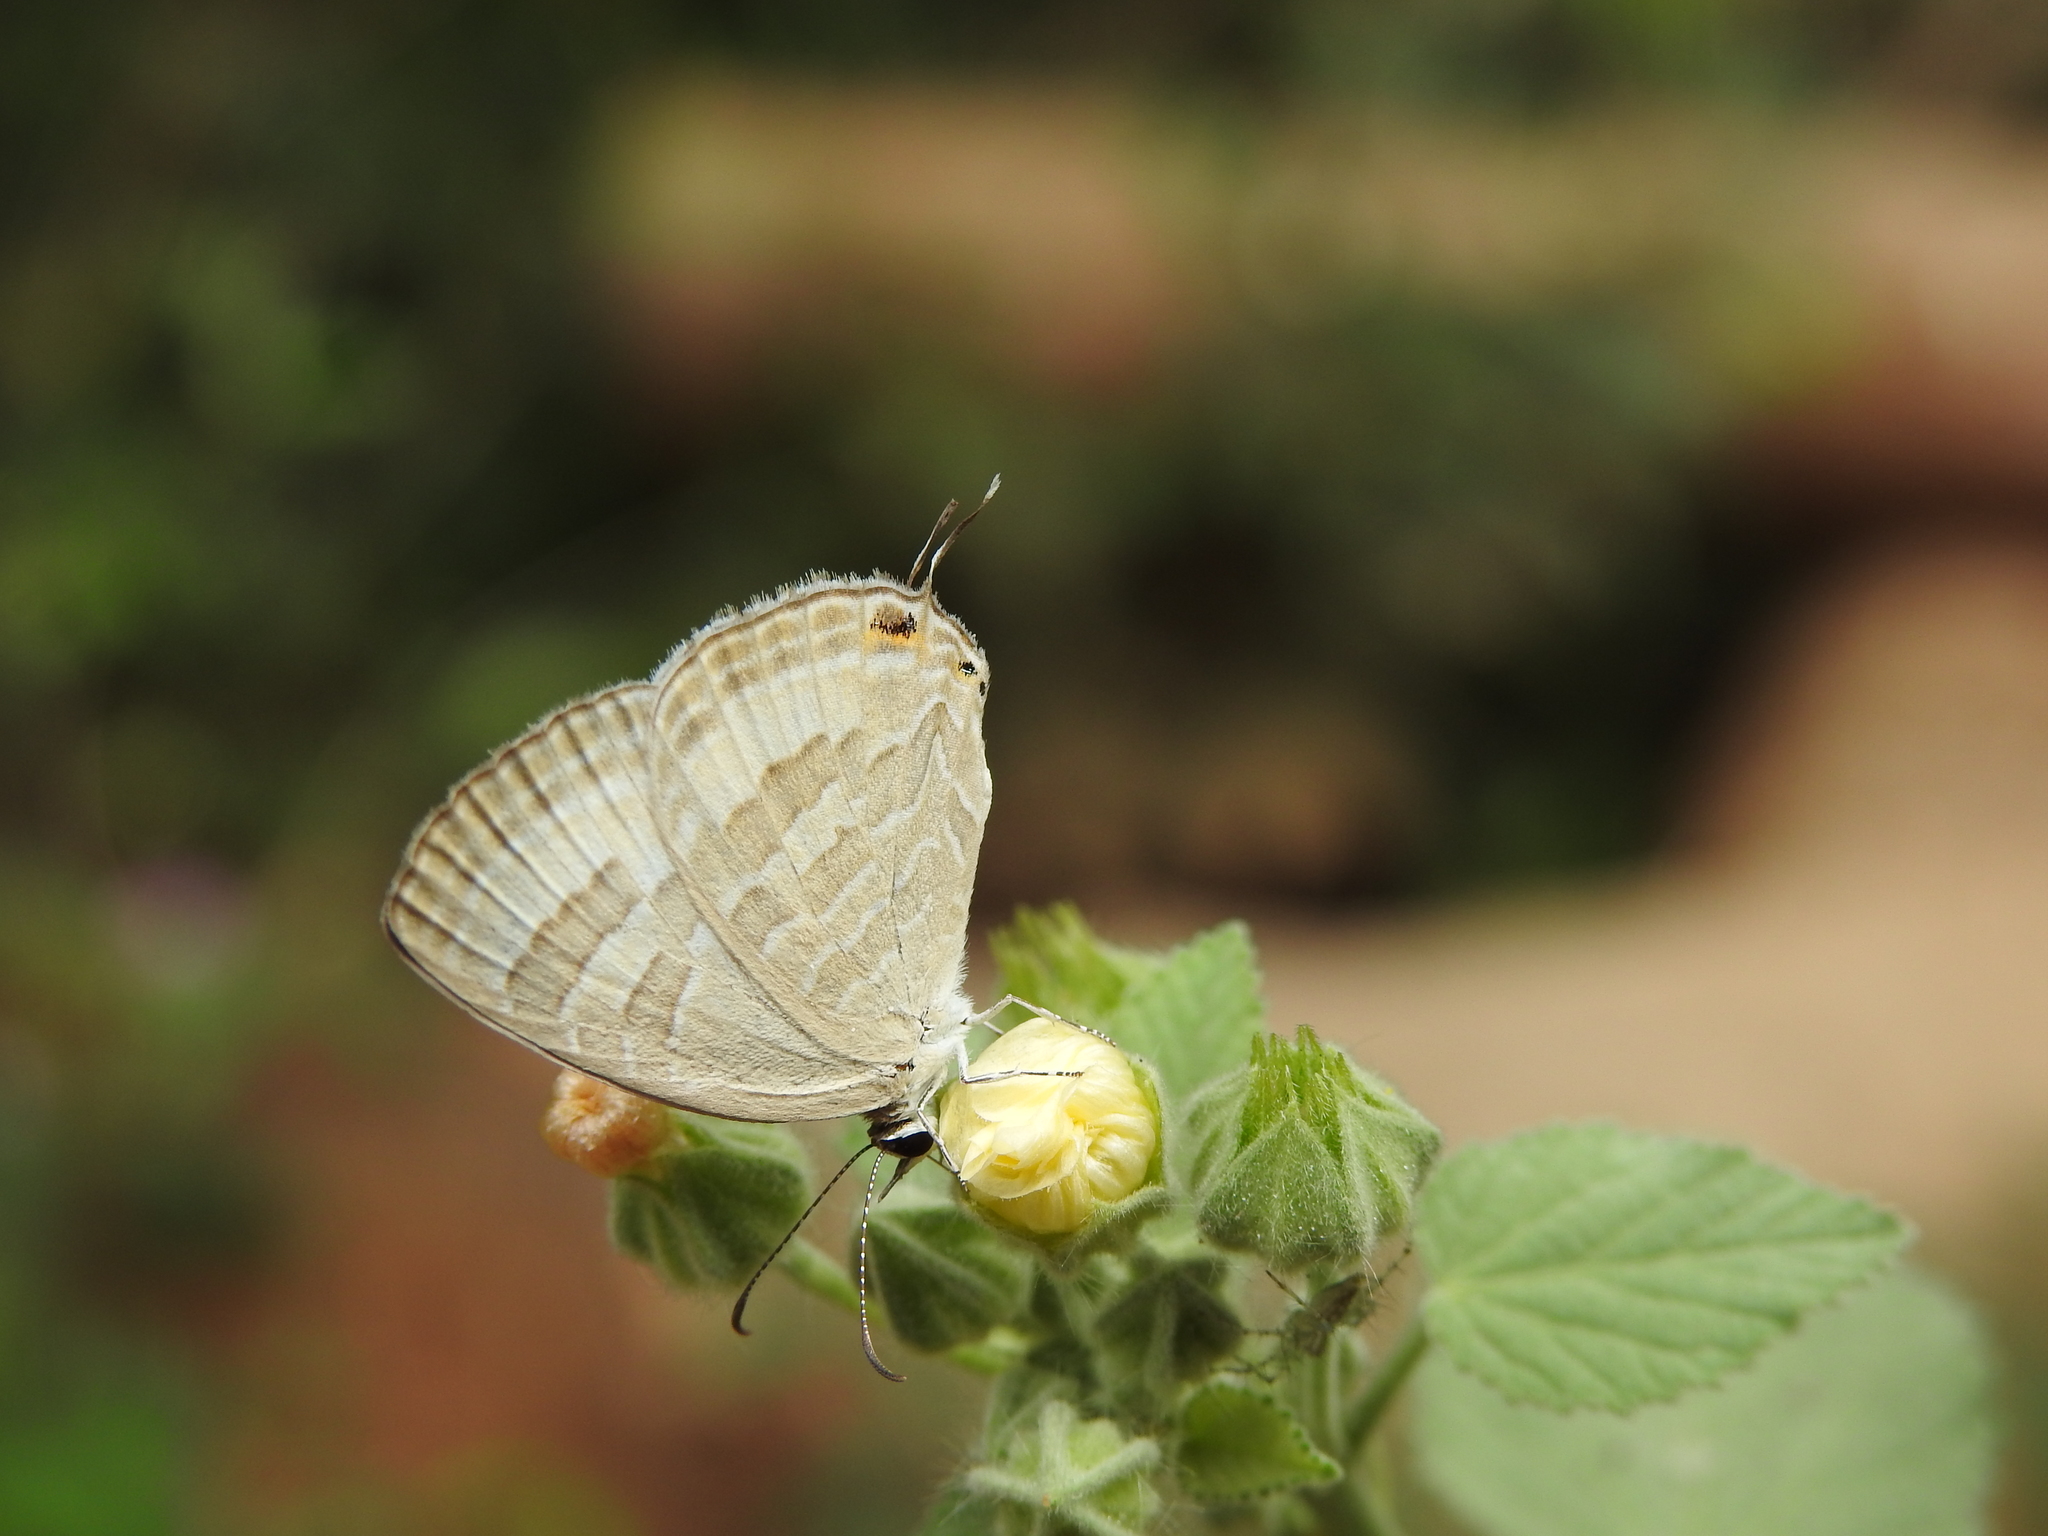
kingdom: Animalia
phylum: Arthropoda
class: Insecta
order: Lepidoptera
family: Lycaenidae
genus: Jamides
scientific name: Jamides celeno
